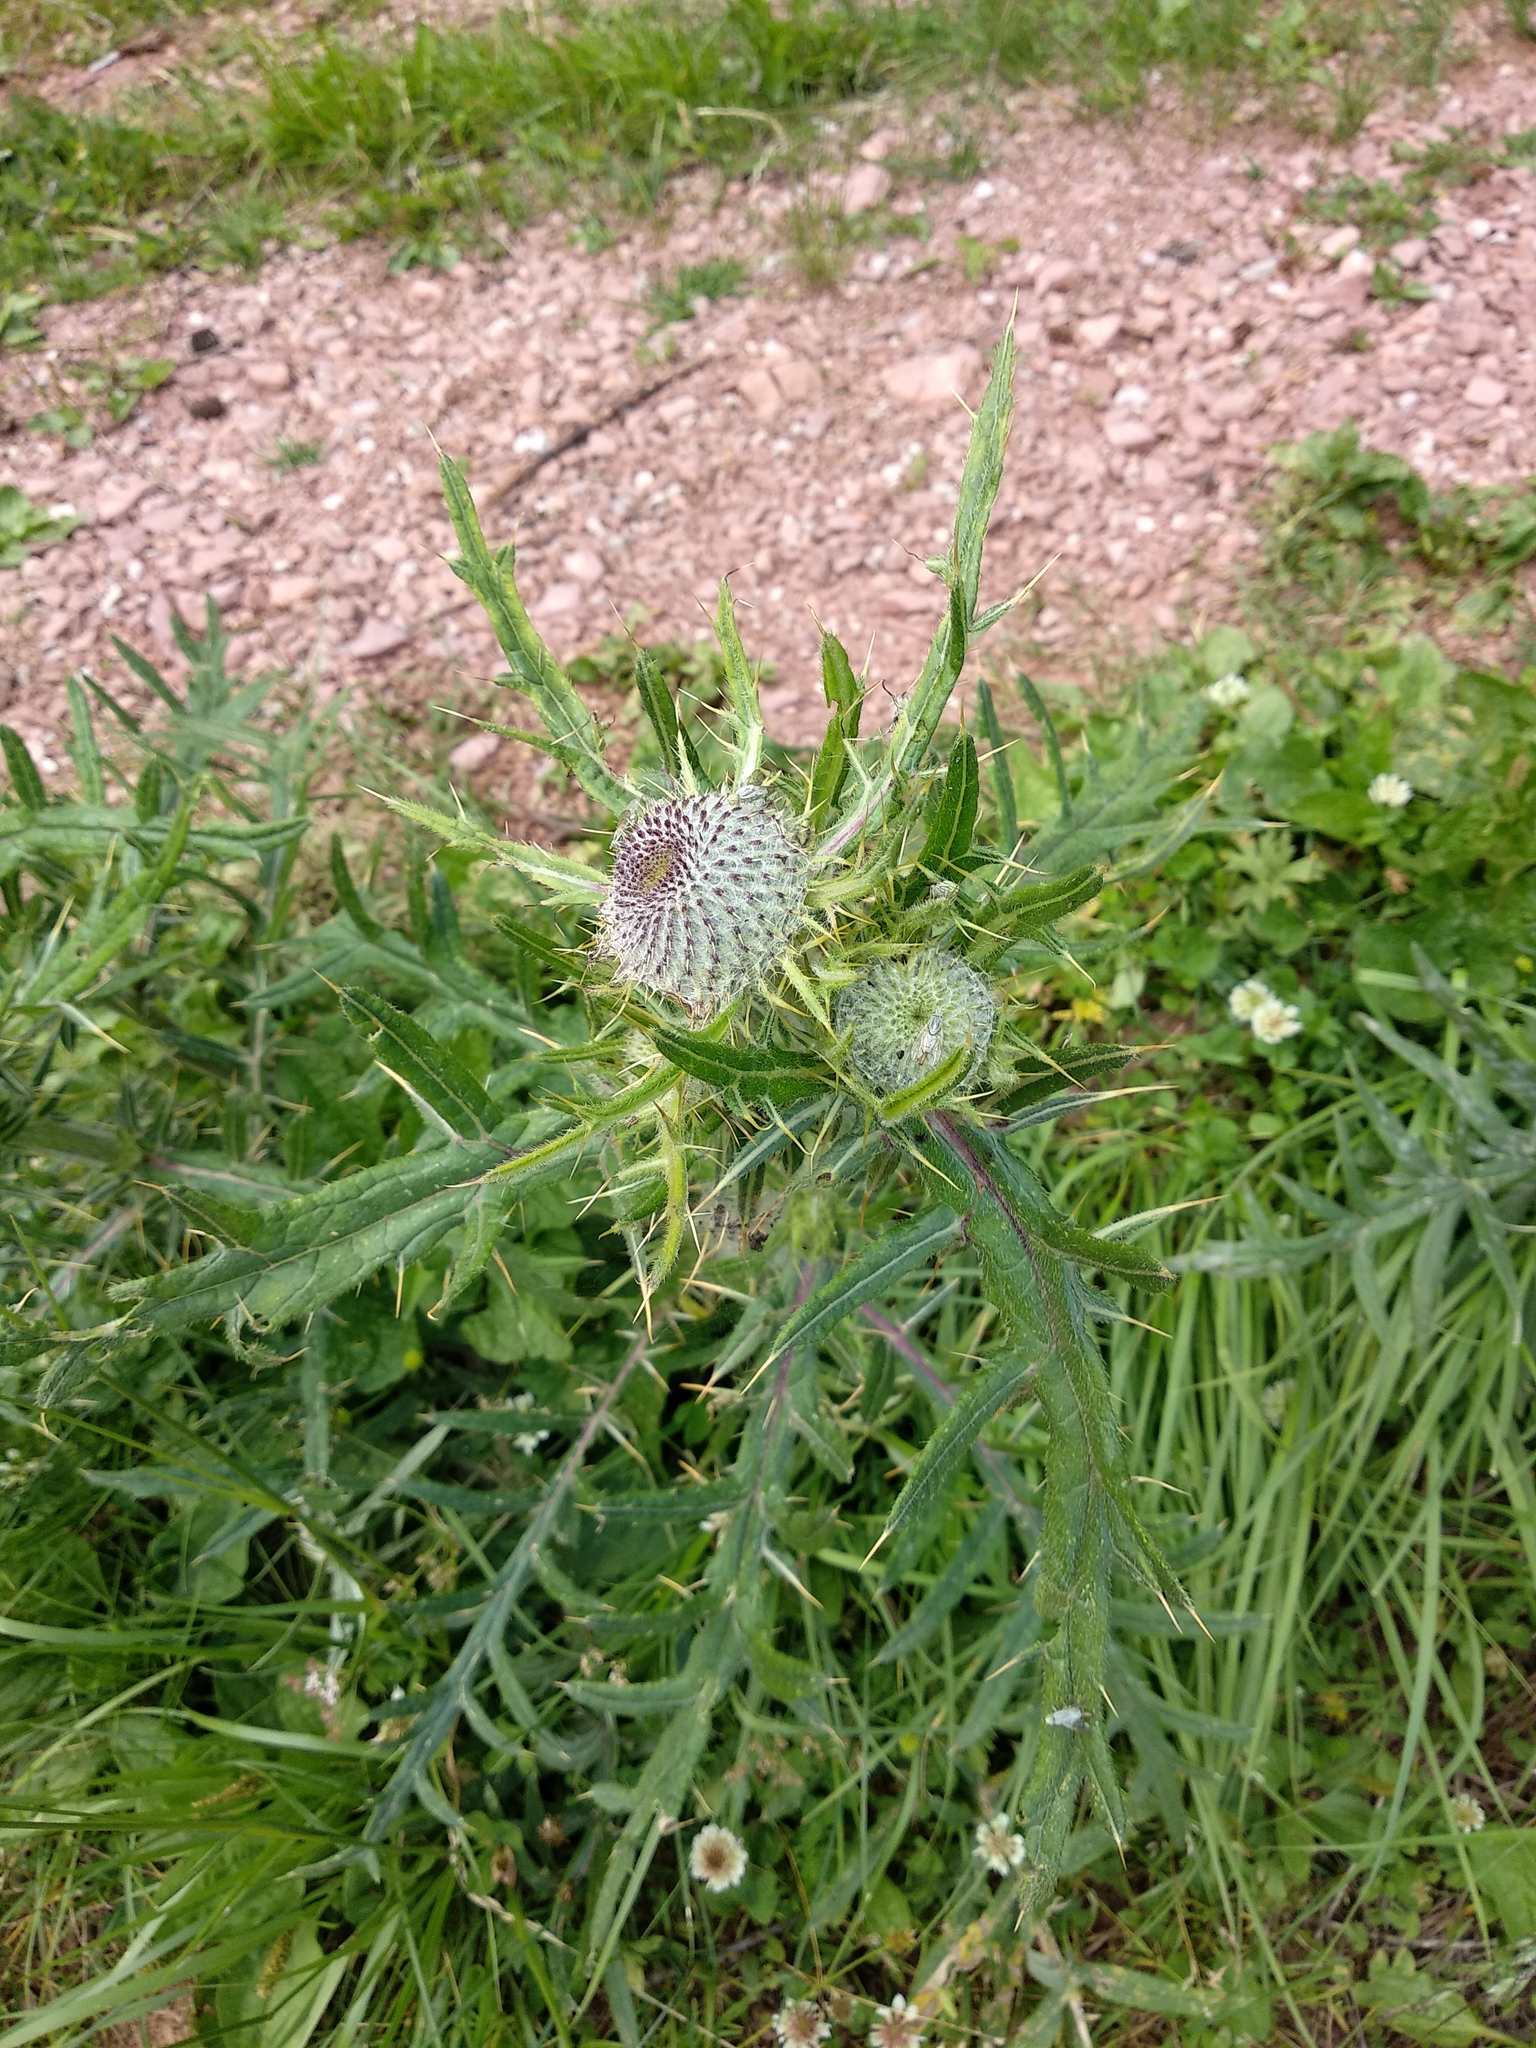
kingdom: Plantae
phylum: Tracheophyta
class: Magnoliopsida
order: Asterales
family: Asteraceae
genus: Lophiolepis
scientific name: Lophiolepis eriophora
